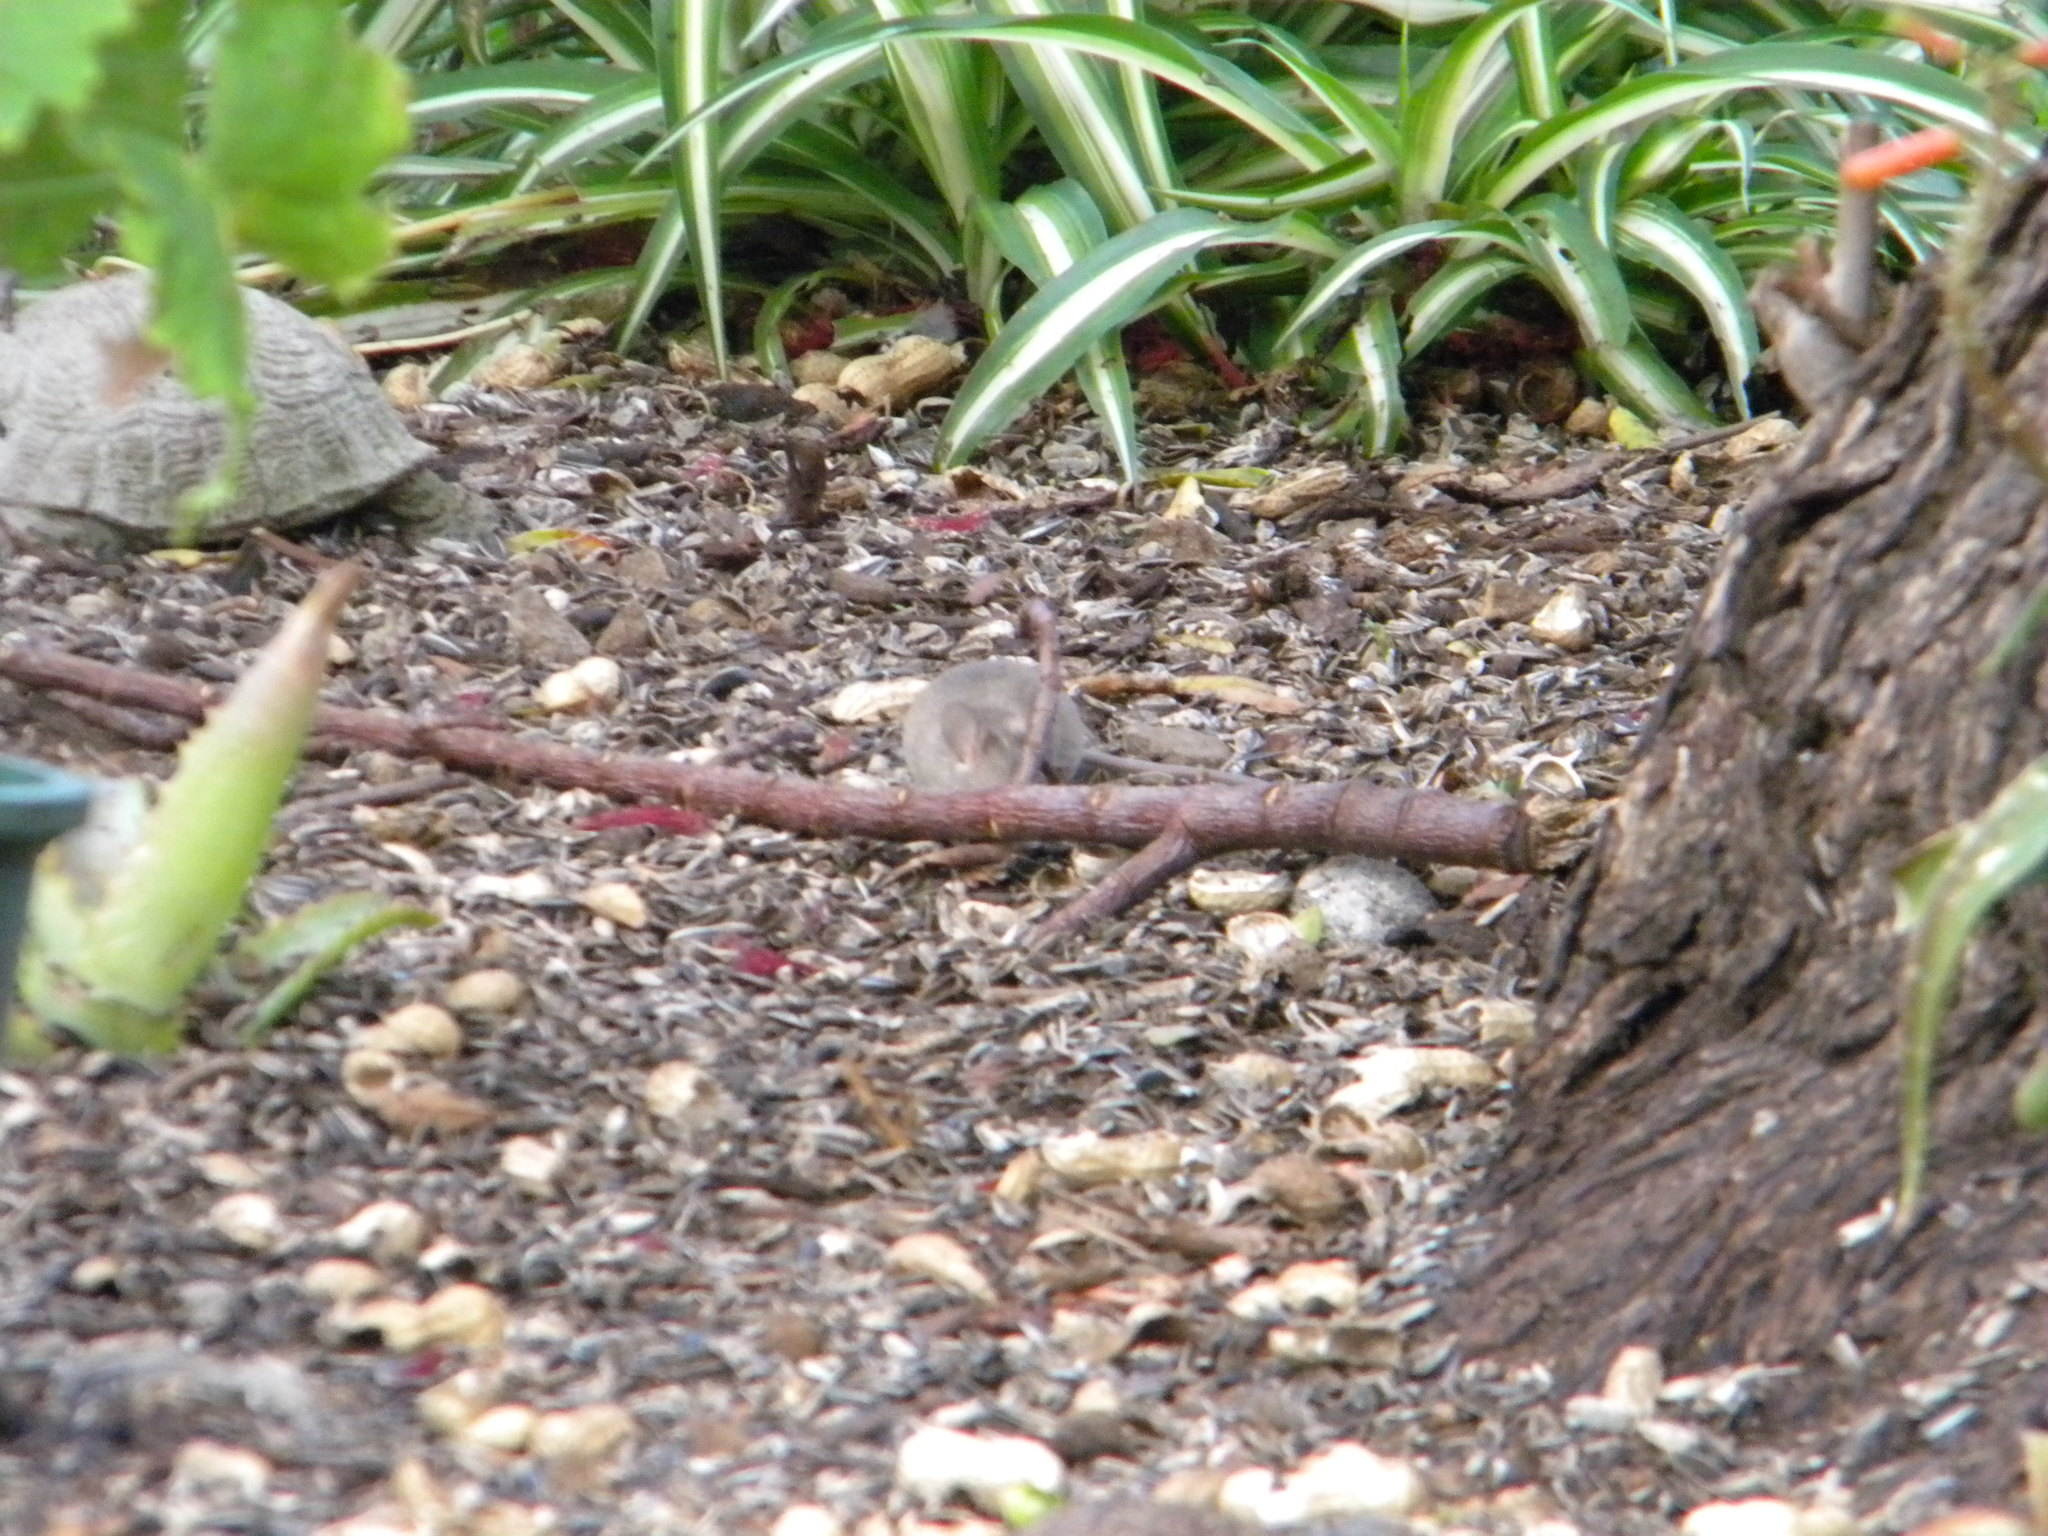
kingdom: Animalia
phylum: Chordata
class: Mammalia
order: Rodentia
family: Muridae
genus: Mus
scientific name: Mus musculus
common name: House mouse
